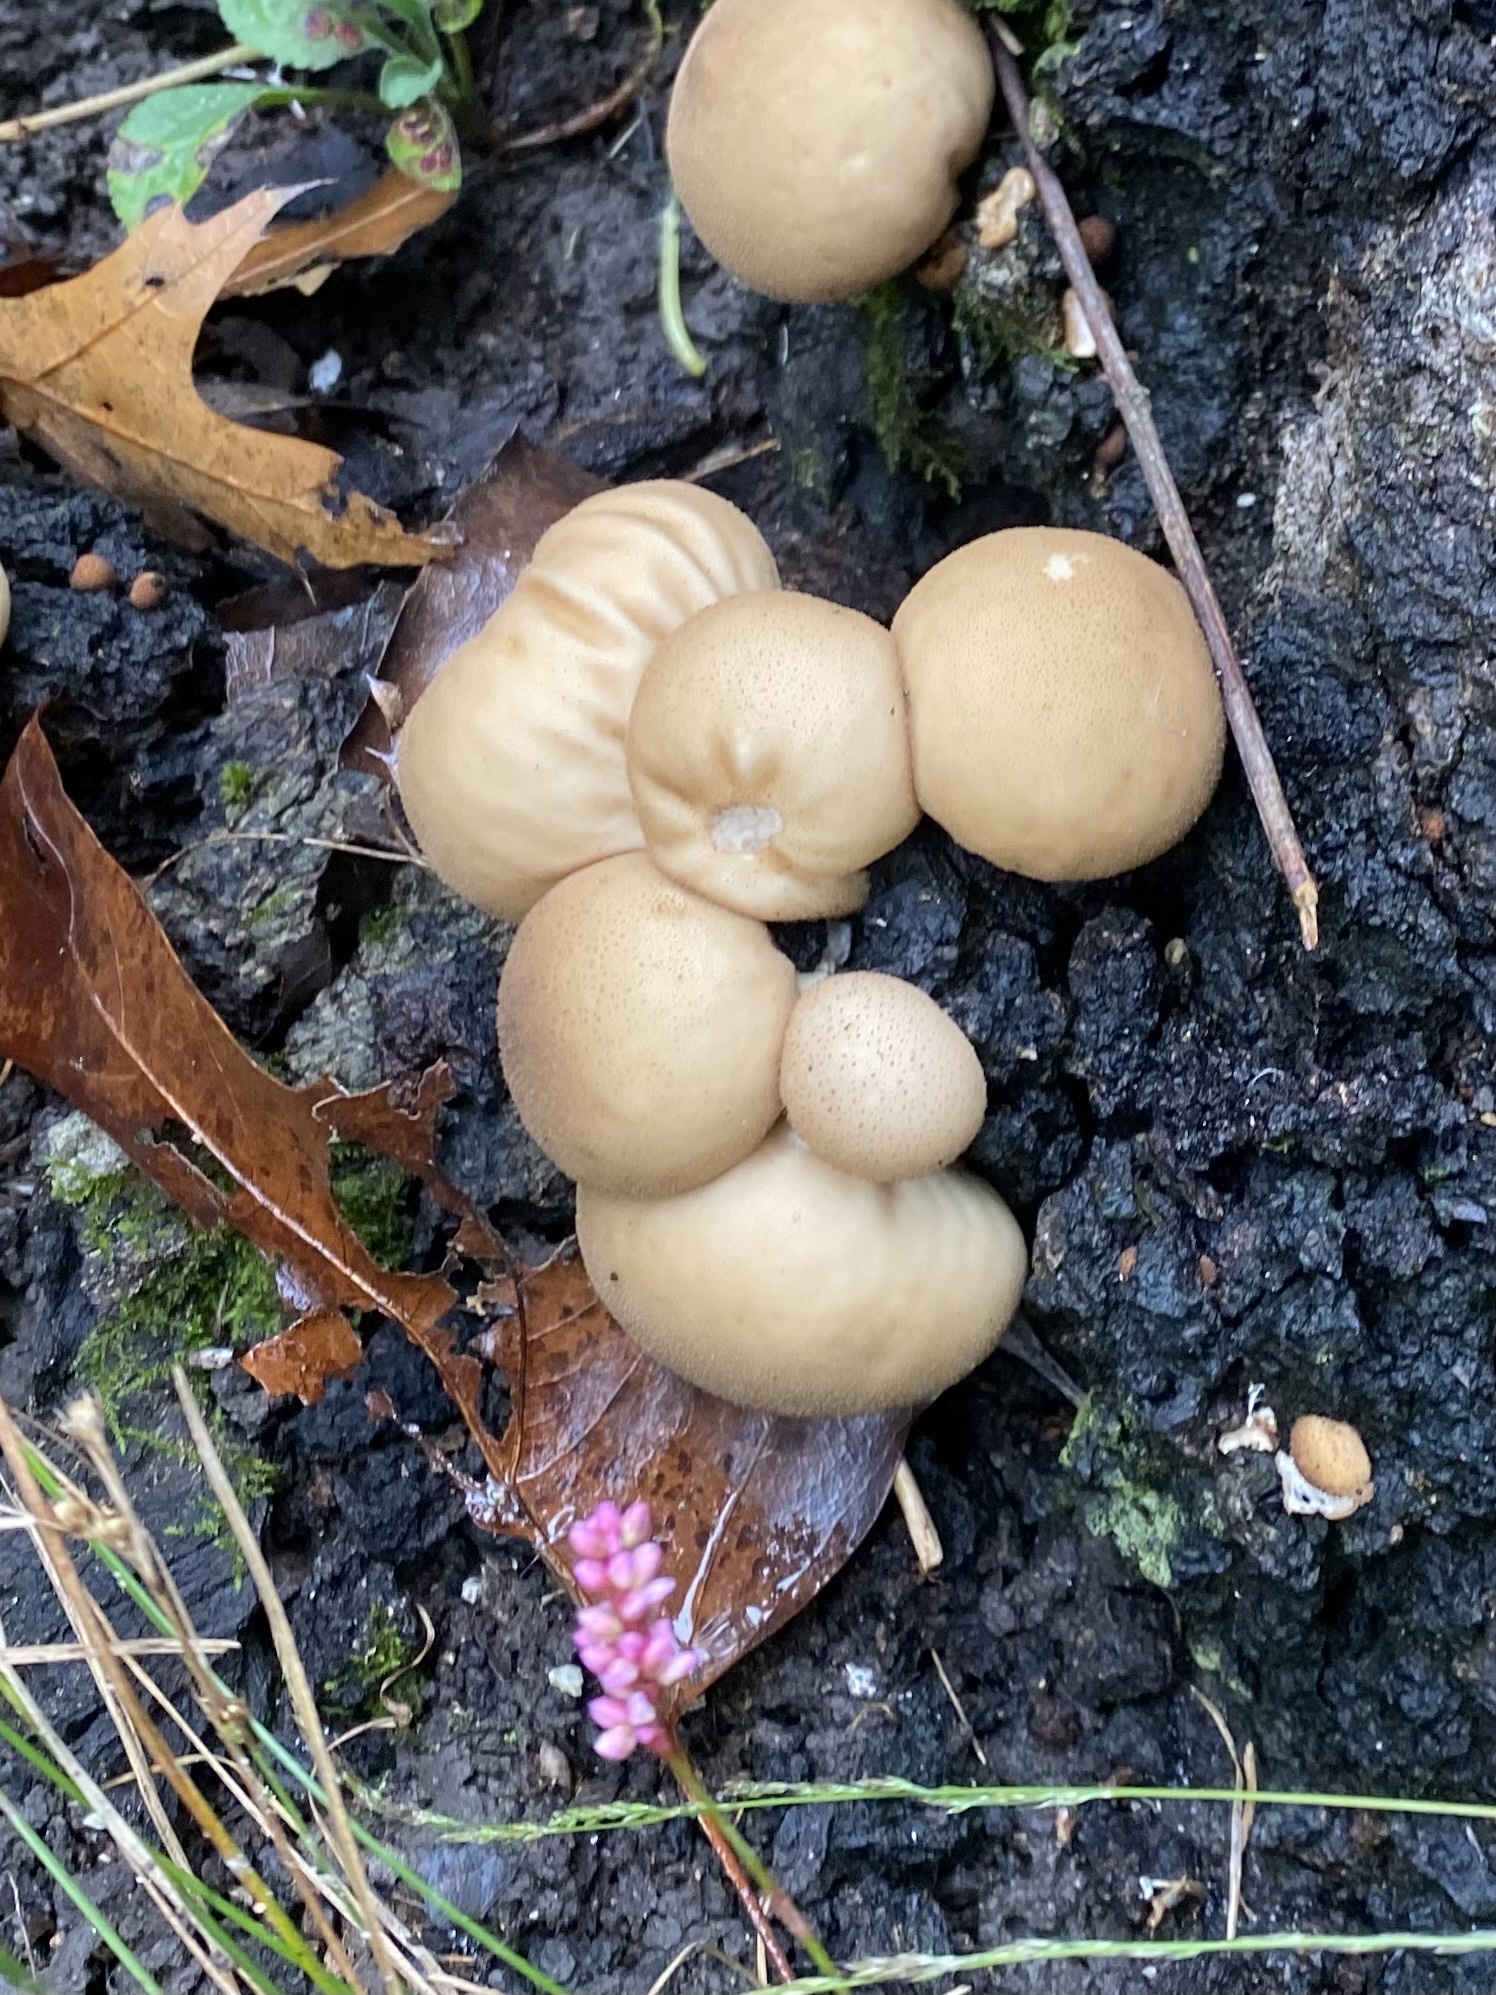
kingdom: Fungi
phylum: Basidiomycota
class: Agaricomycetes
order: Agaricales
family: Lycoperdaceae
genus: Apioperdon
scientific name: Apioperdon pyriforme
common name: Pear-shaped puffball
